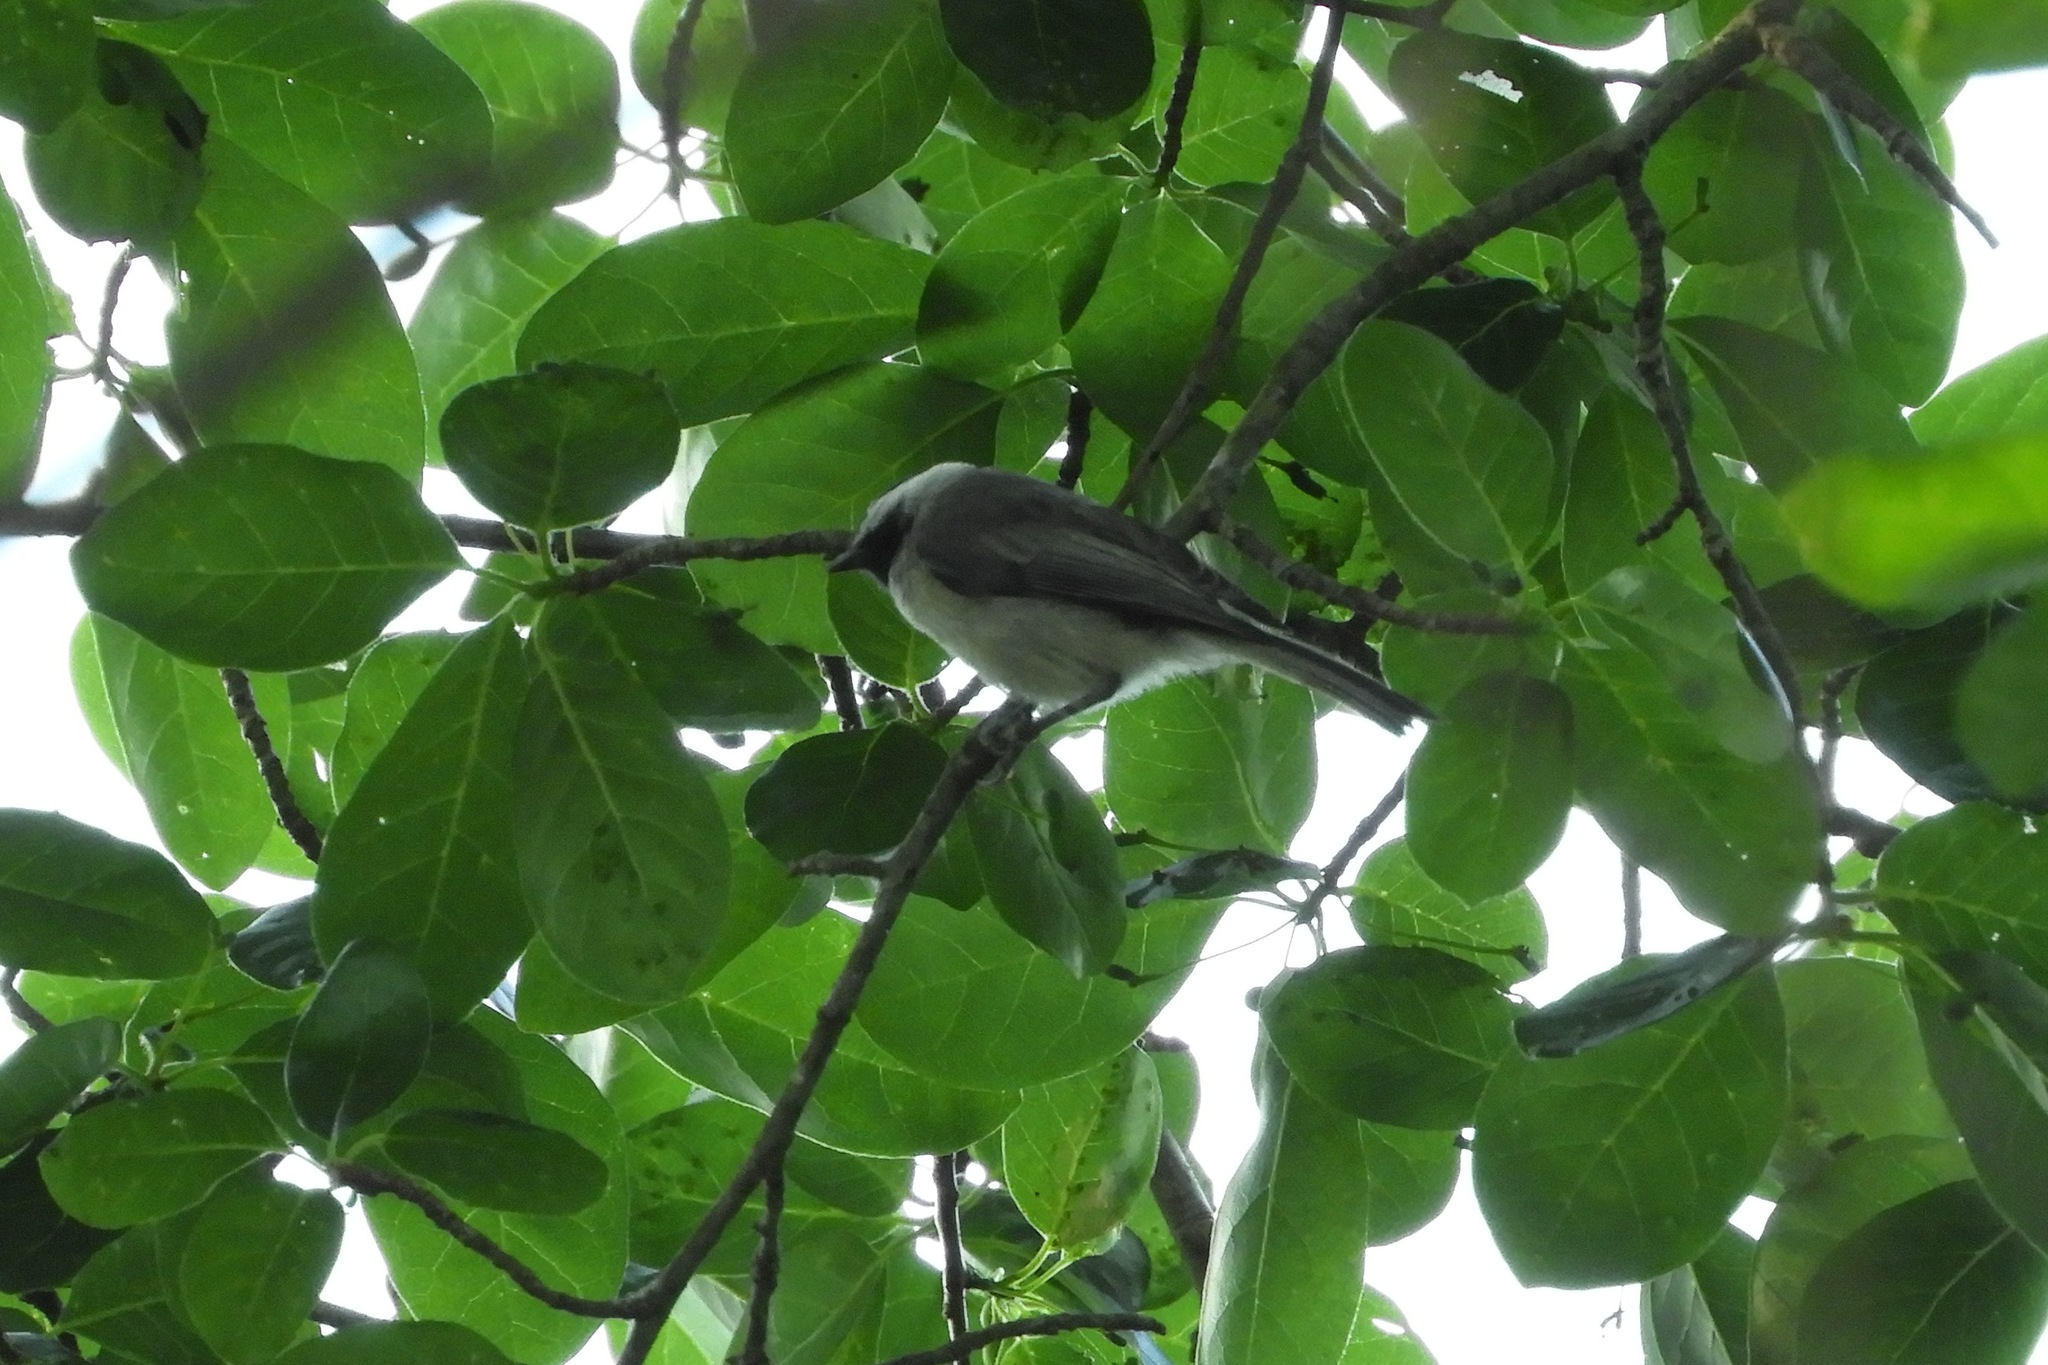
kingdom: Animalia
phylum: Chordata
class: Aves
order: Passeriformes
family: Paridae
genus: Poecile
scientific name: Poecile carolinensis
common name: Carolina chickadee
